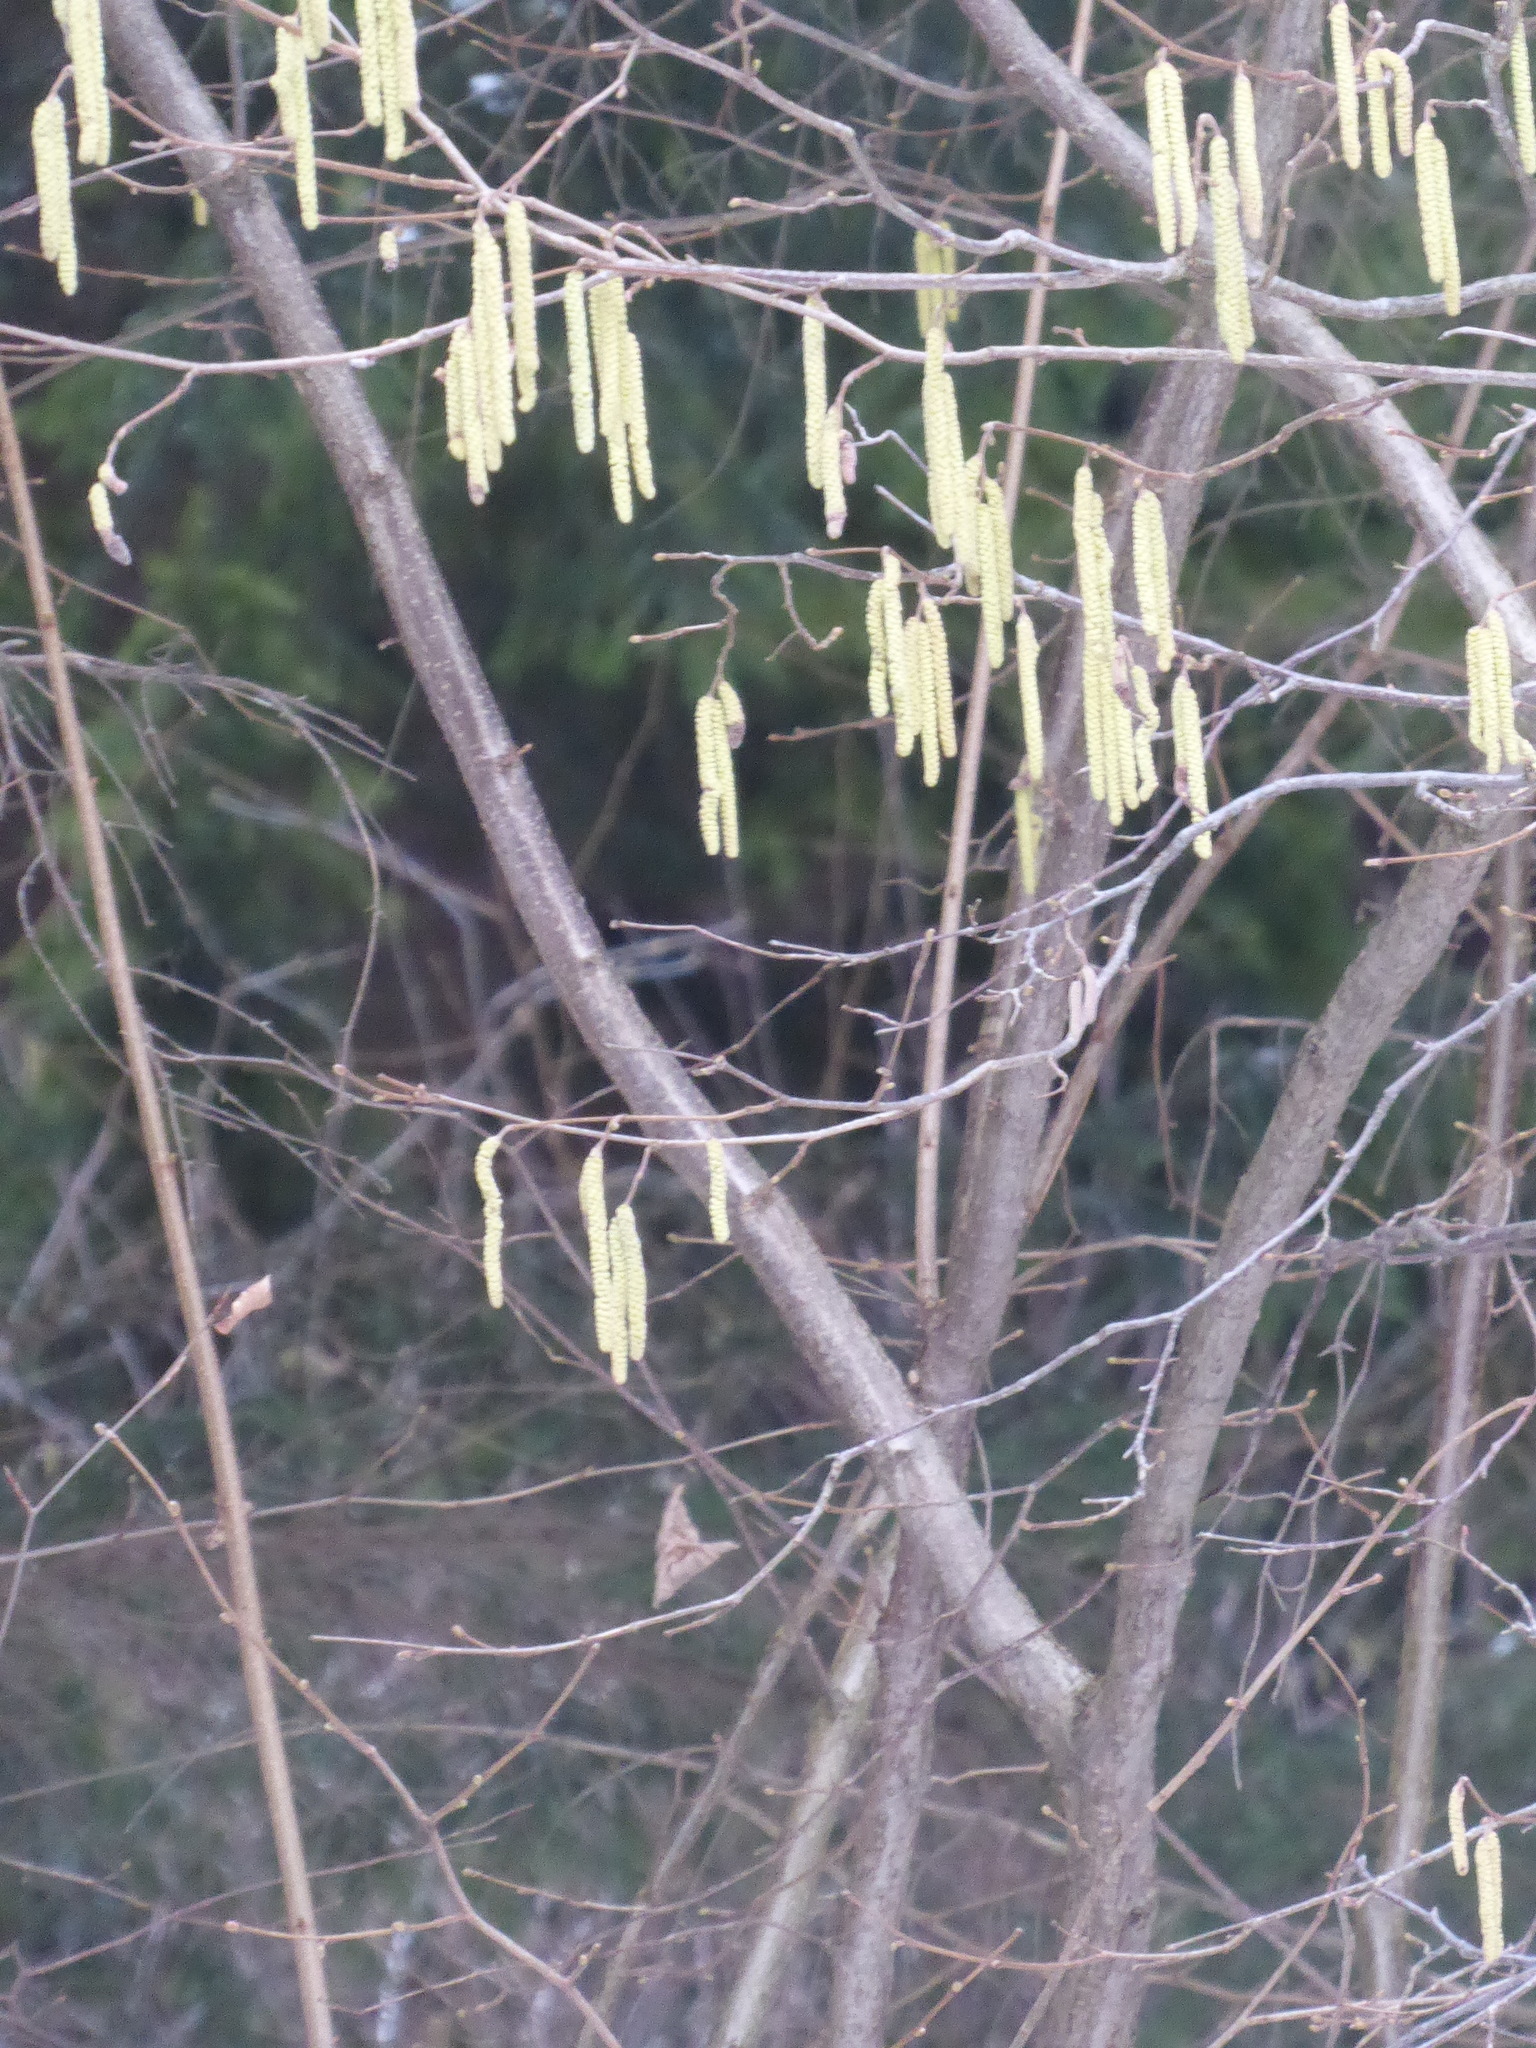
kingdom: Plantae
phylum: Tracheophyta
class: Magnoliopsida
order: Fagales
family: Betulaceae
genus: Corylus
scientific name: Corylus avellana
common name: European hazel
